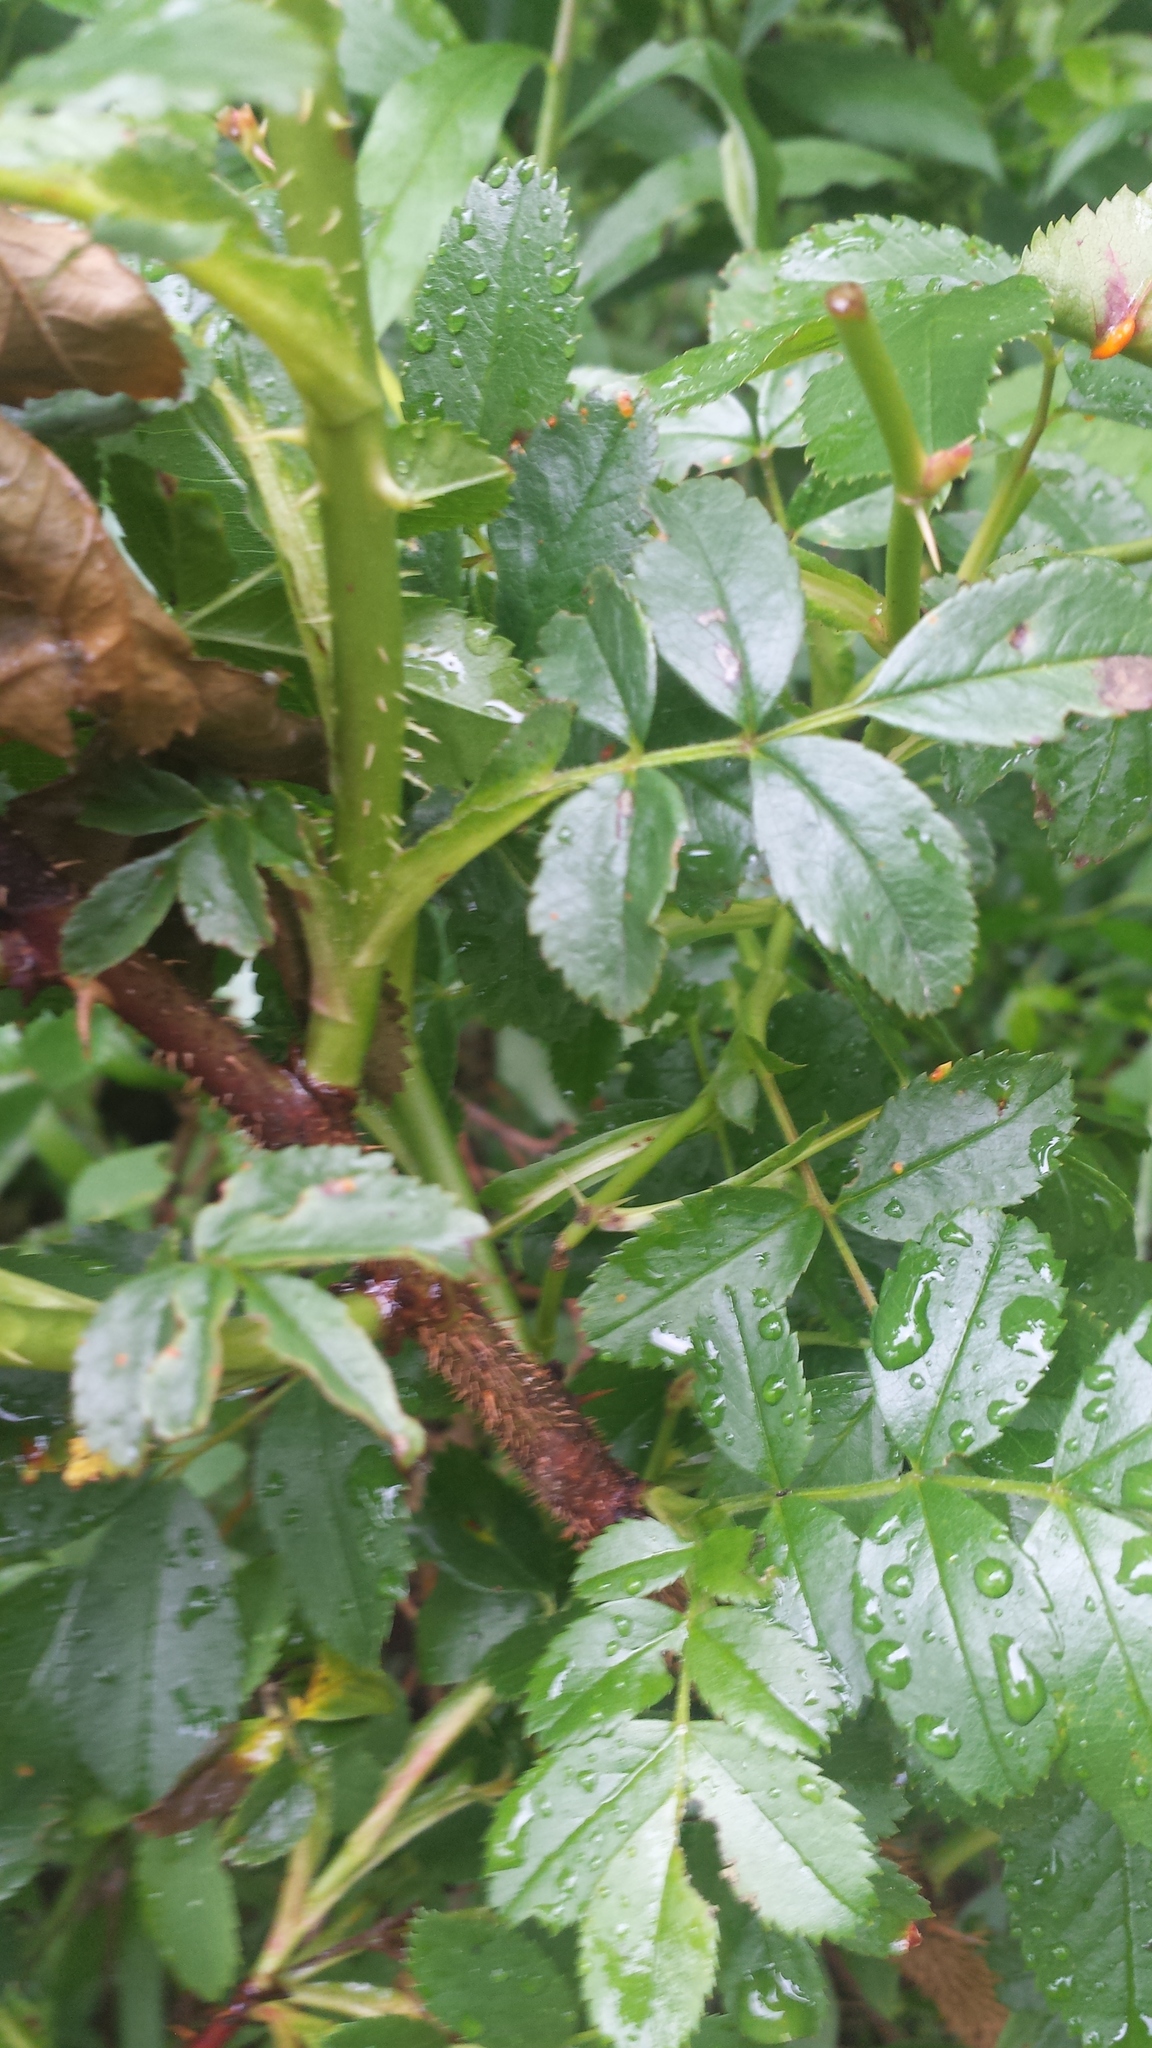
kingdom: Plantae
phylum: Tracheophyta
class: Magnoliopsida
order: Rosales
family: Rosaceae
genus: Rosa
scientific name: Rosa rugosa
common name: Japanese rose
